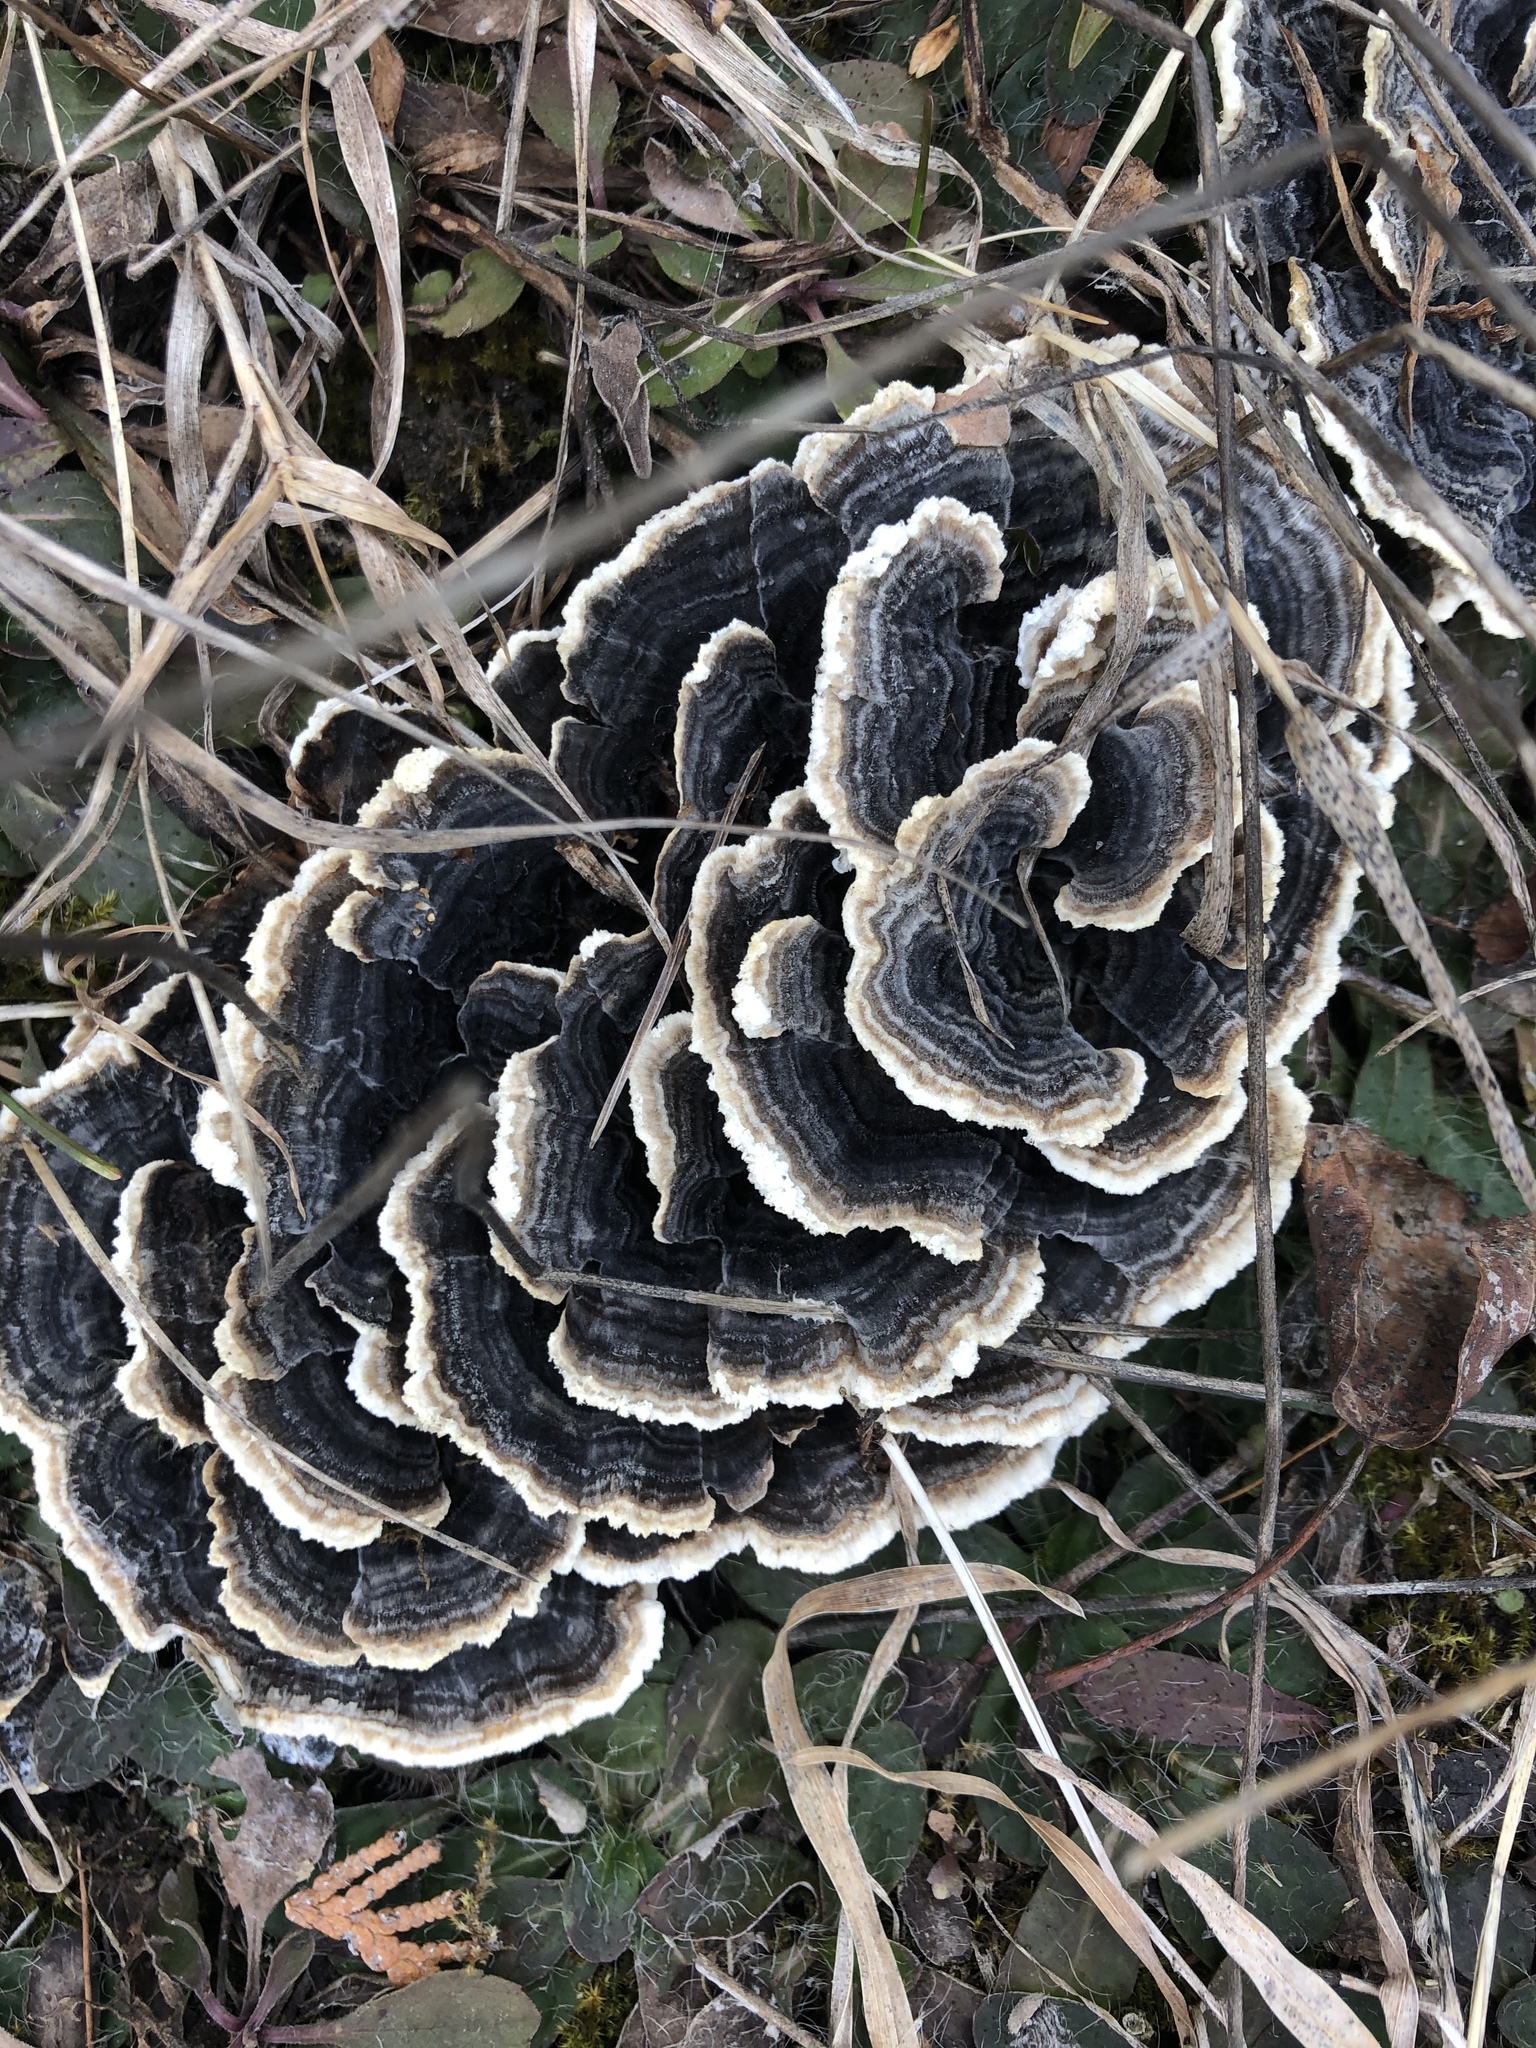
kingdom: Fungi
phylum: Basidiomycota
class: Agaricomycetes
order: Polyporales
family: Polyporaceae
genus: Trametes
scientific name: Trametes versicolor
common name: Turkeytail
